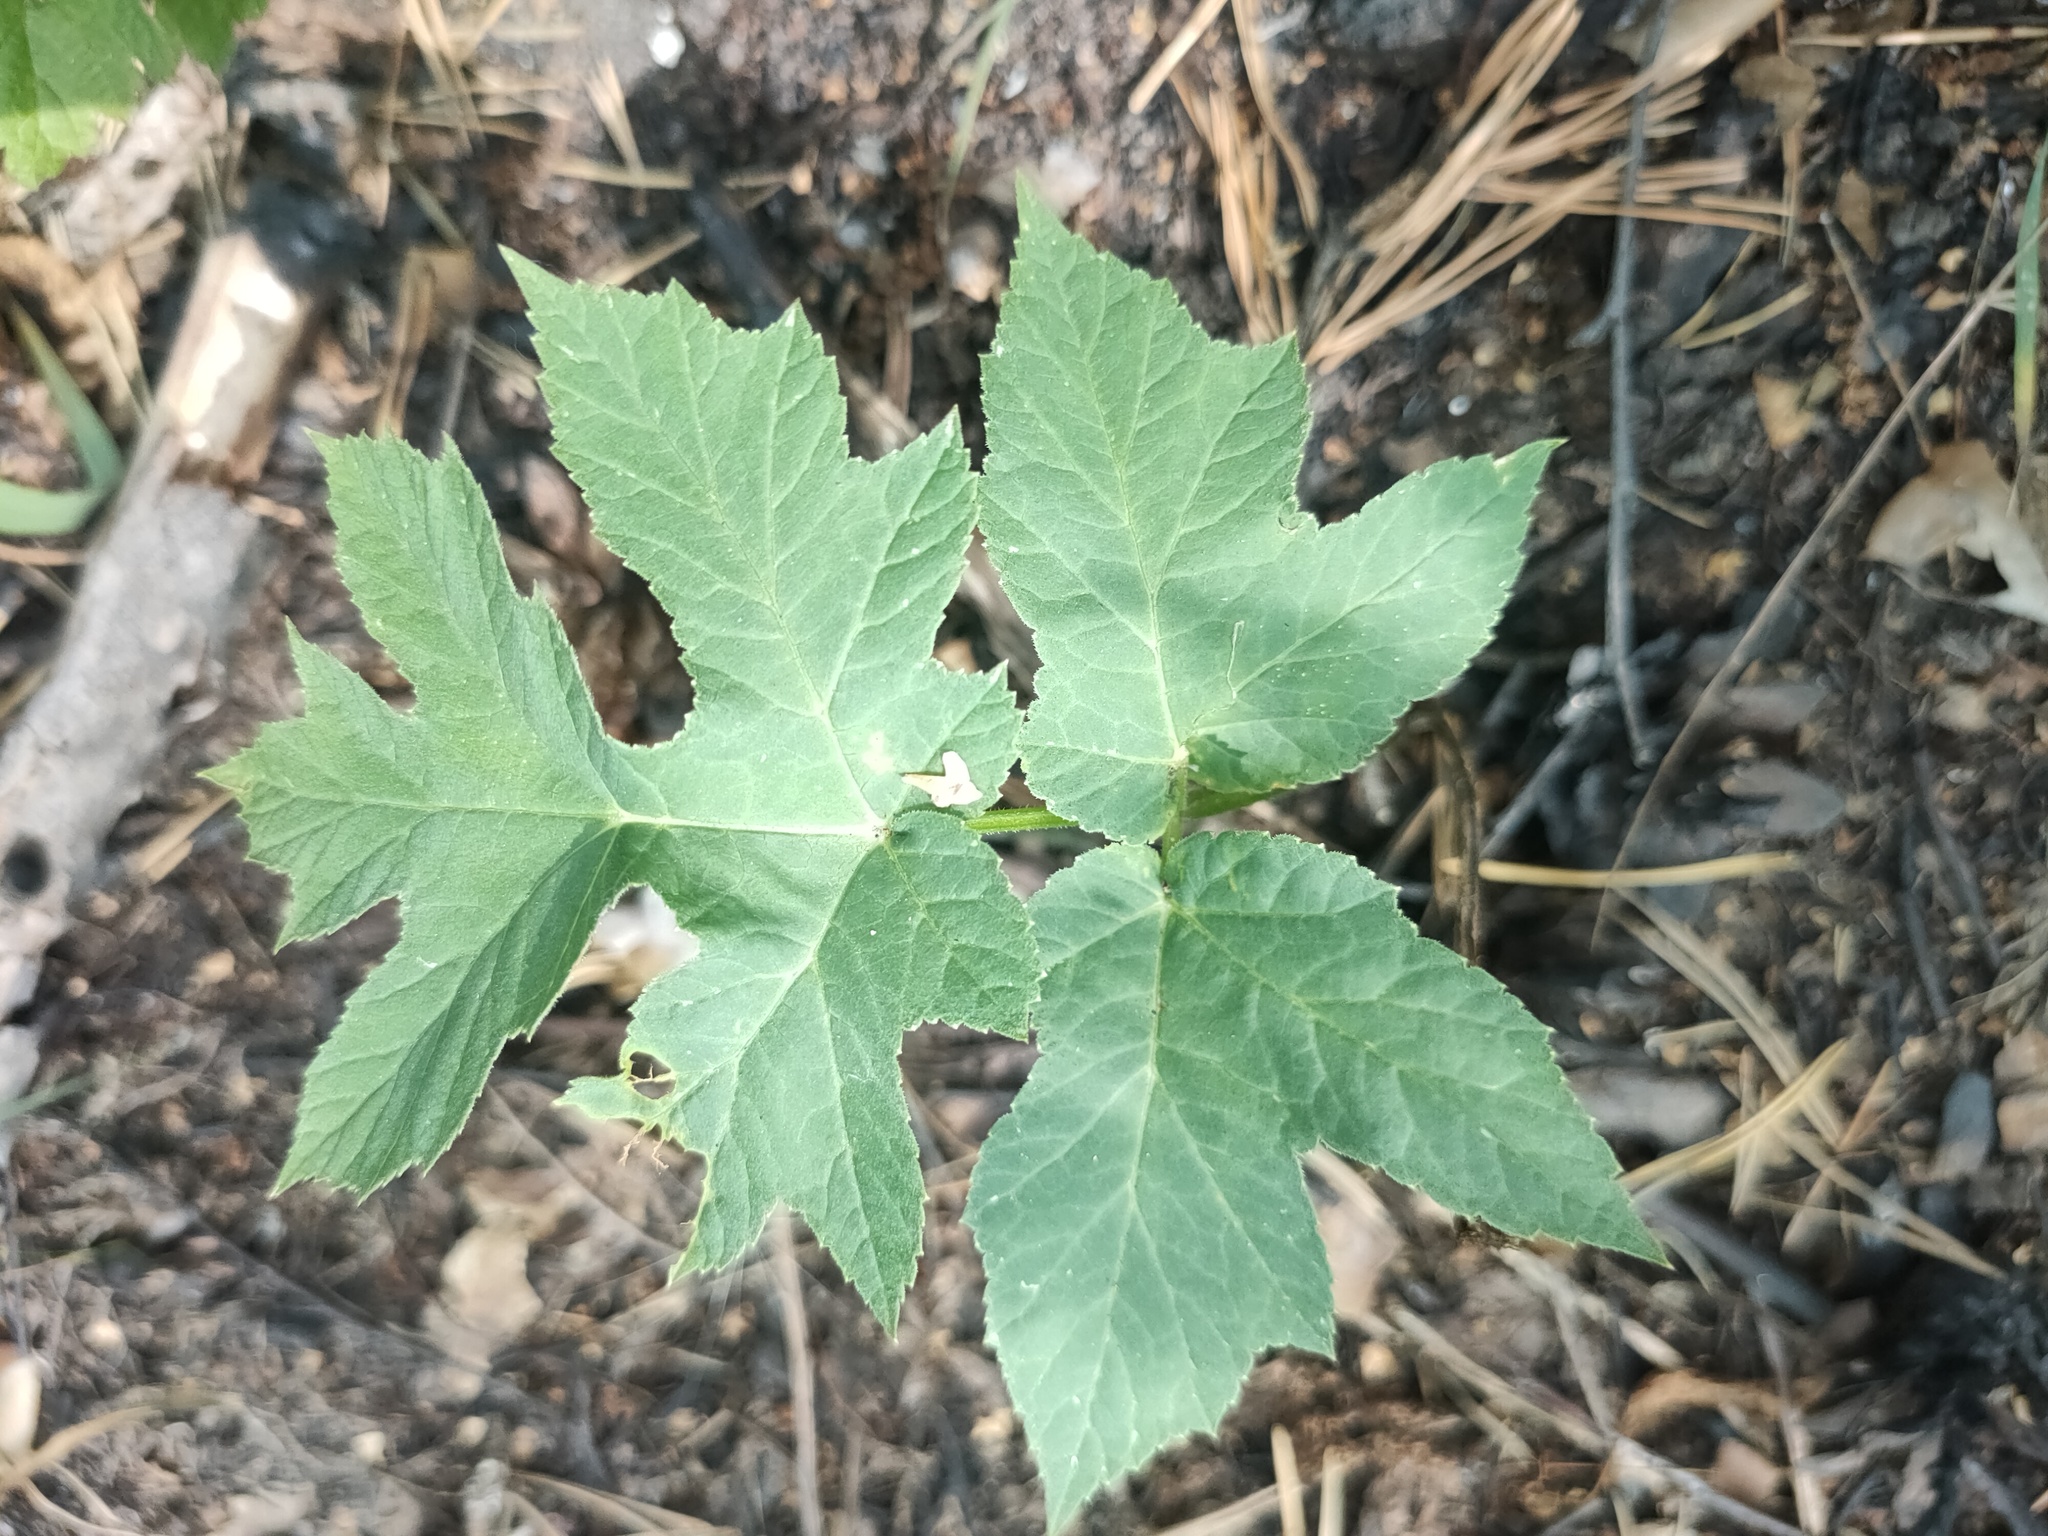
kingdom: Plantae
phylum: Tracheophyta
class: Magnoliopsida
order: Apiales
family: Apiaceae
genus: Heracleum
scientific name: Heracleum sphondylium
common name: Hogweed
